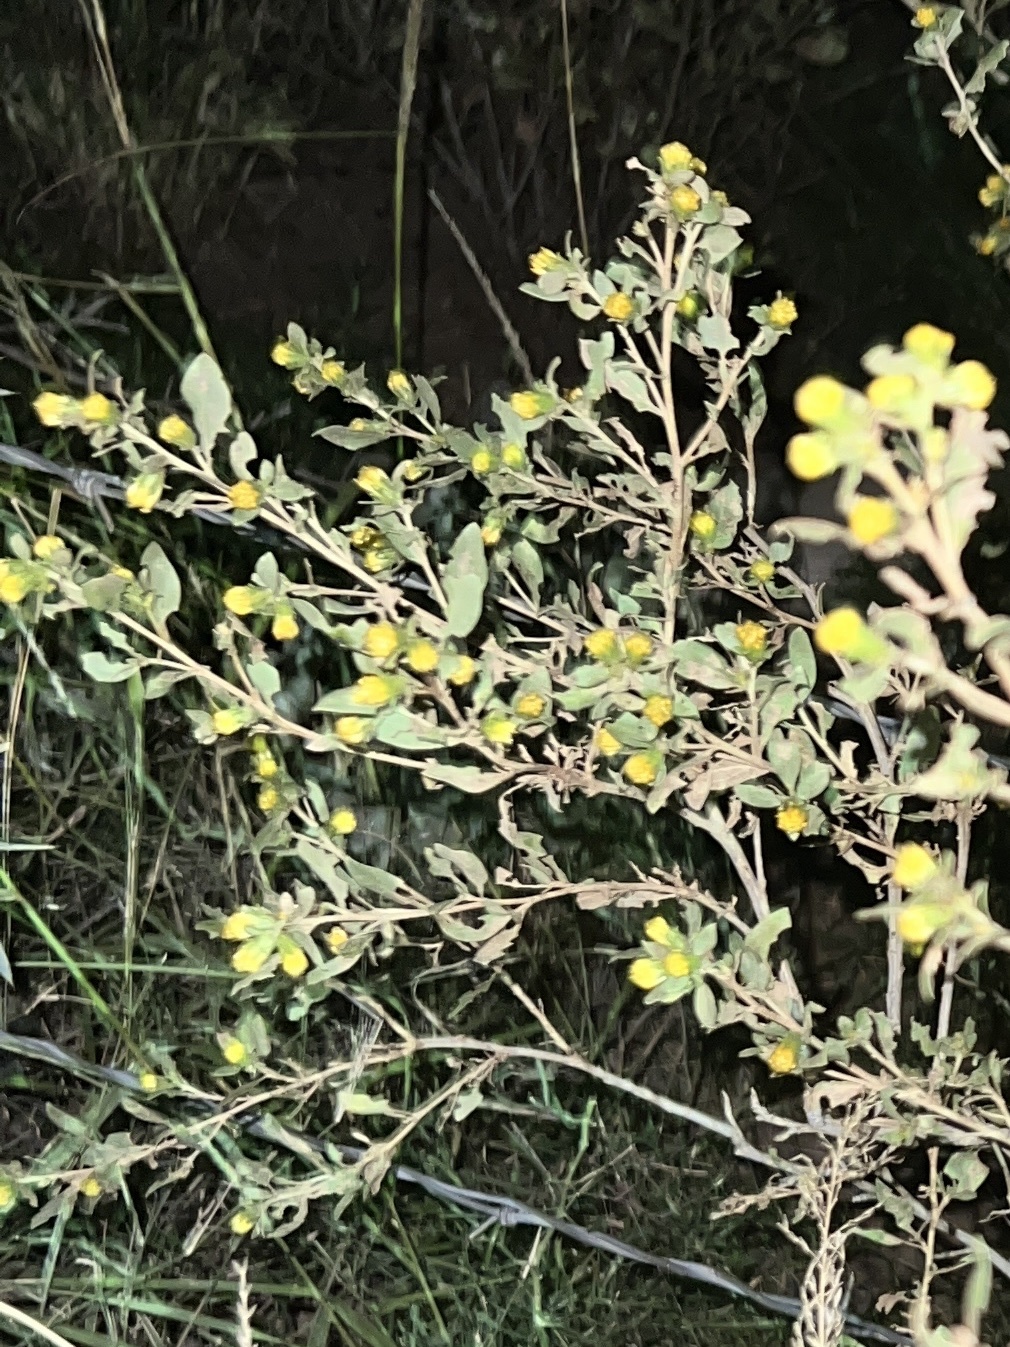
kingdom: Plantae
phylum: Tracheophyta
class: Magnoliopsida
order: Asterales
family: Asteraceae
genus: Flourensia
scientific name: Flourensia cernua
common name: Varnishbush
